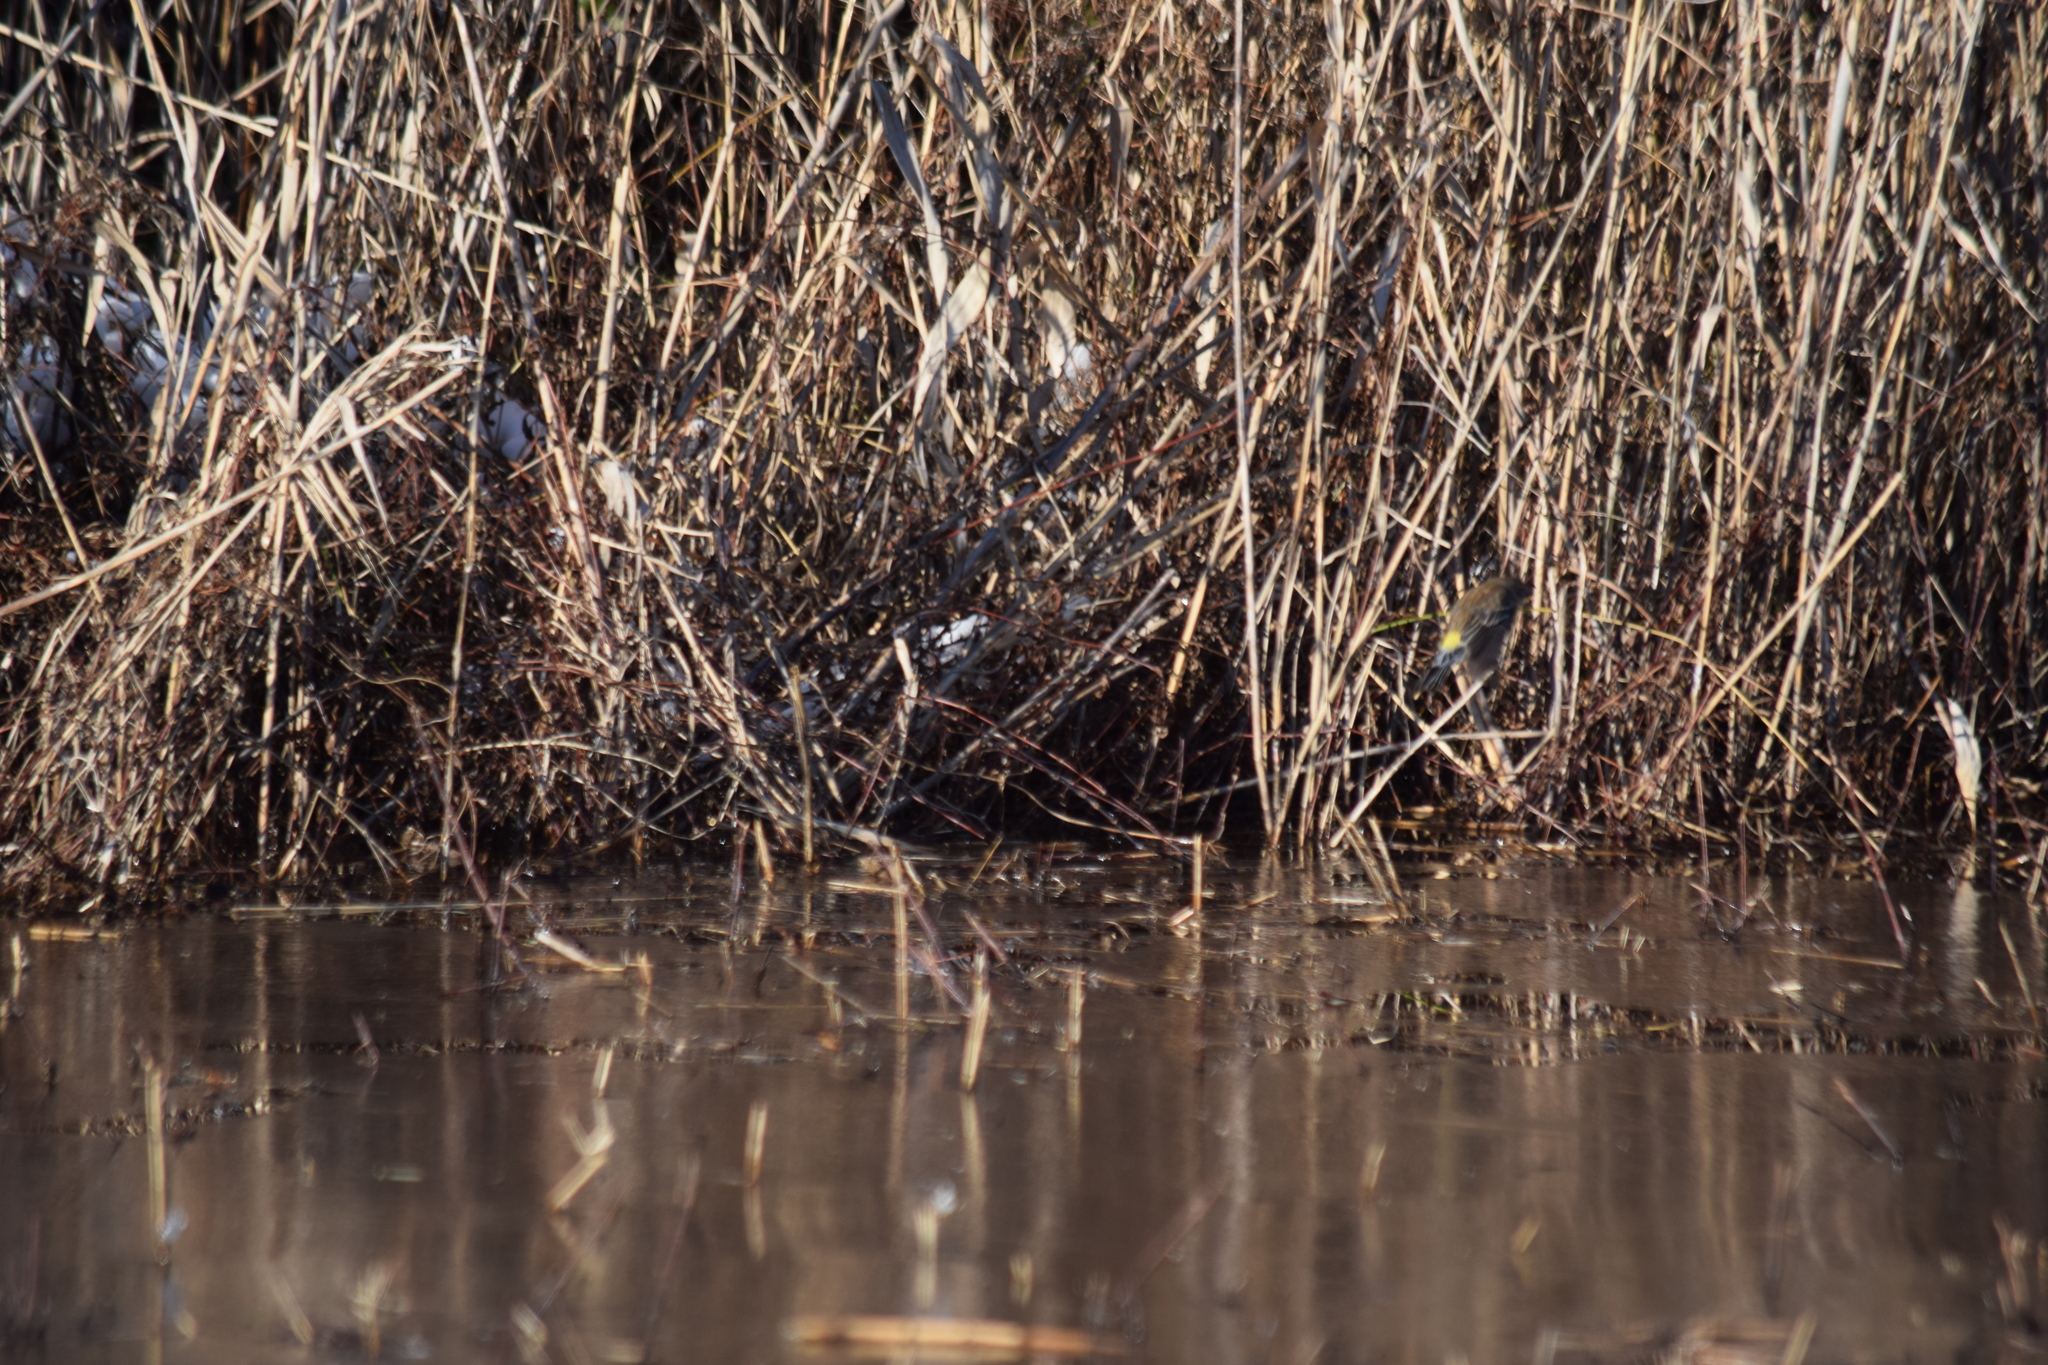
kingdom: Animalia
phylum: Chordata
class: Aves
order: Passeriformes
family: Parulidae
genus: Setophaga
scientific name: Setophaga coronata
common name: Myrtle warbler
